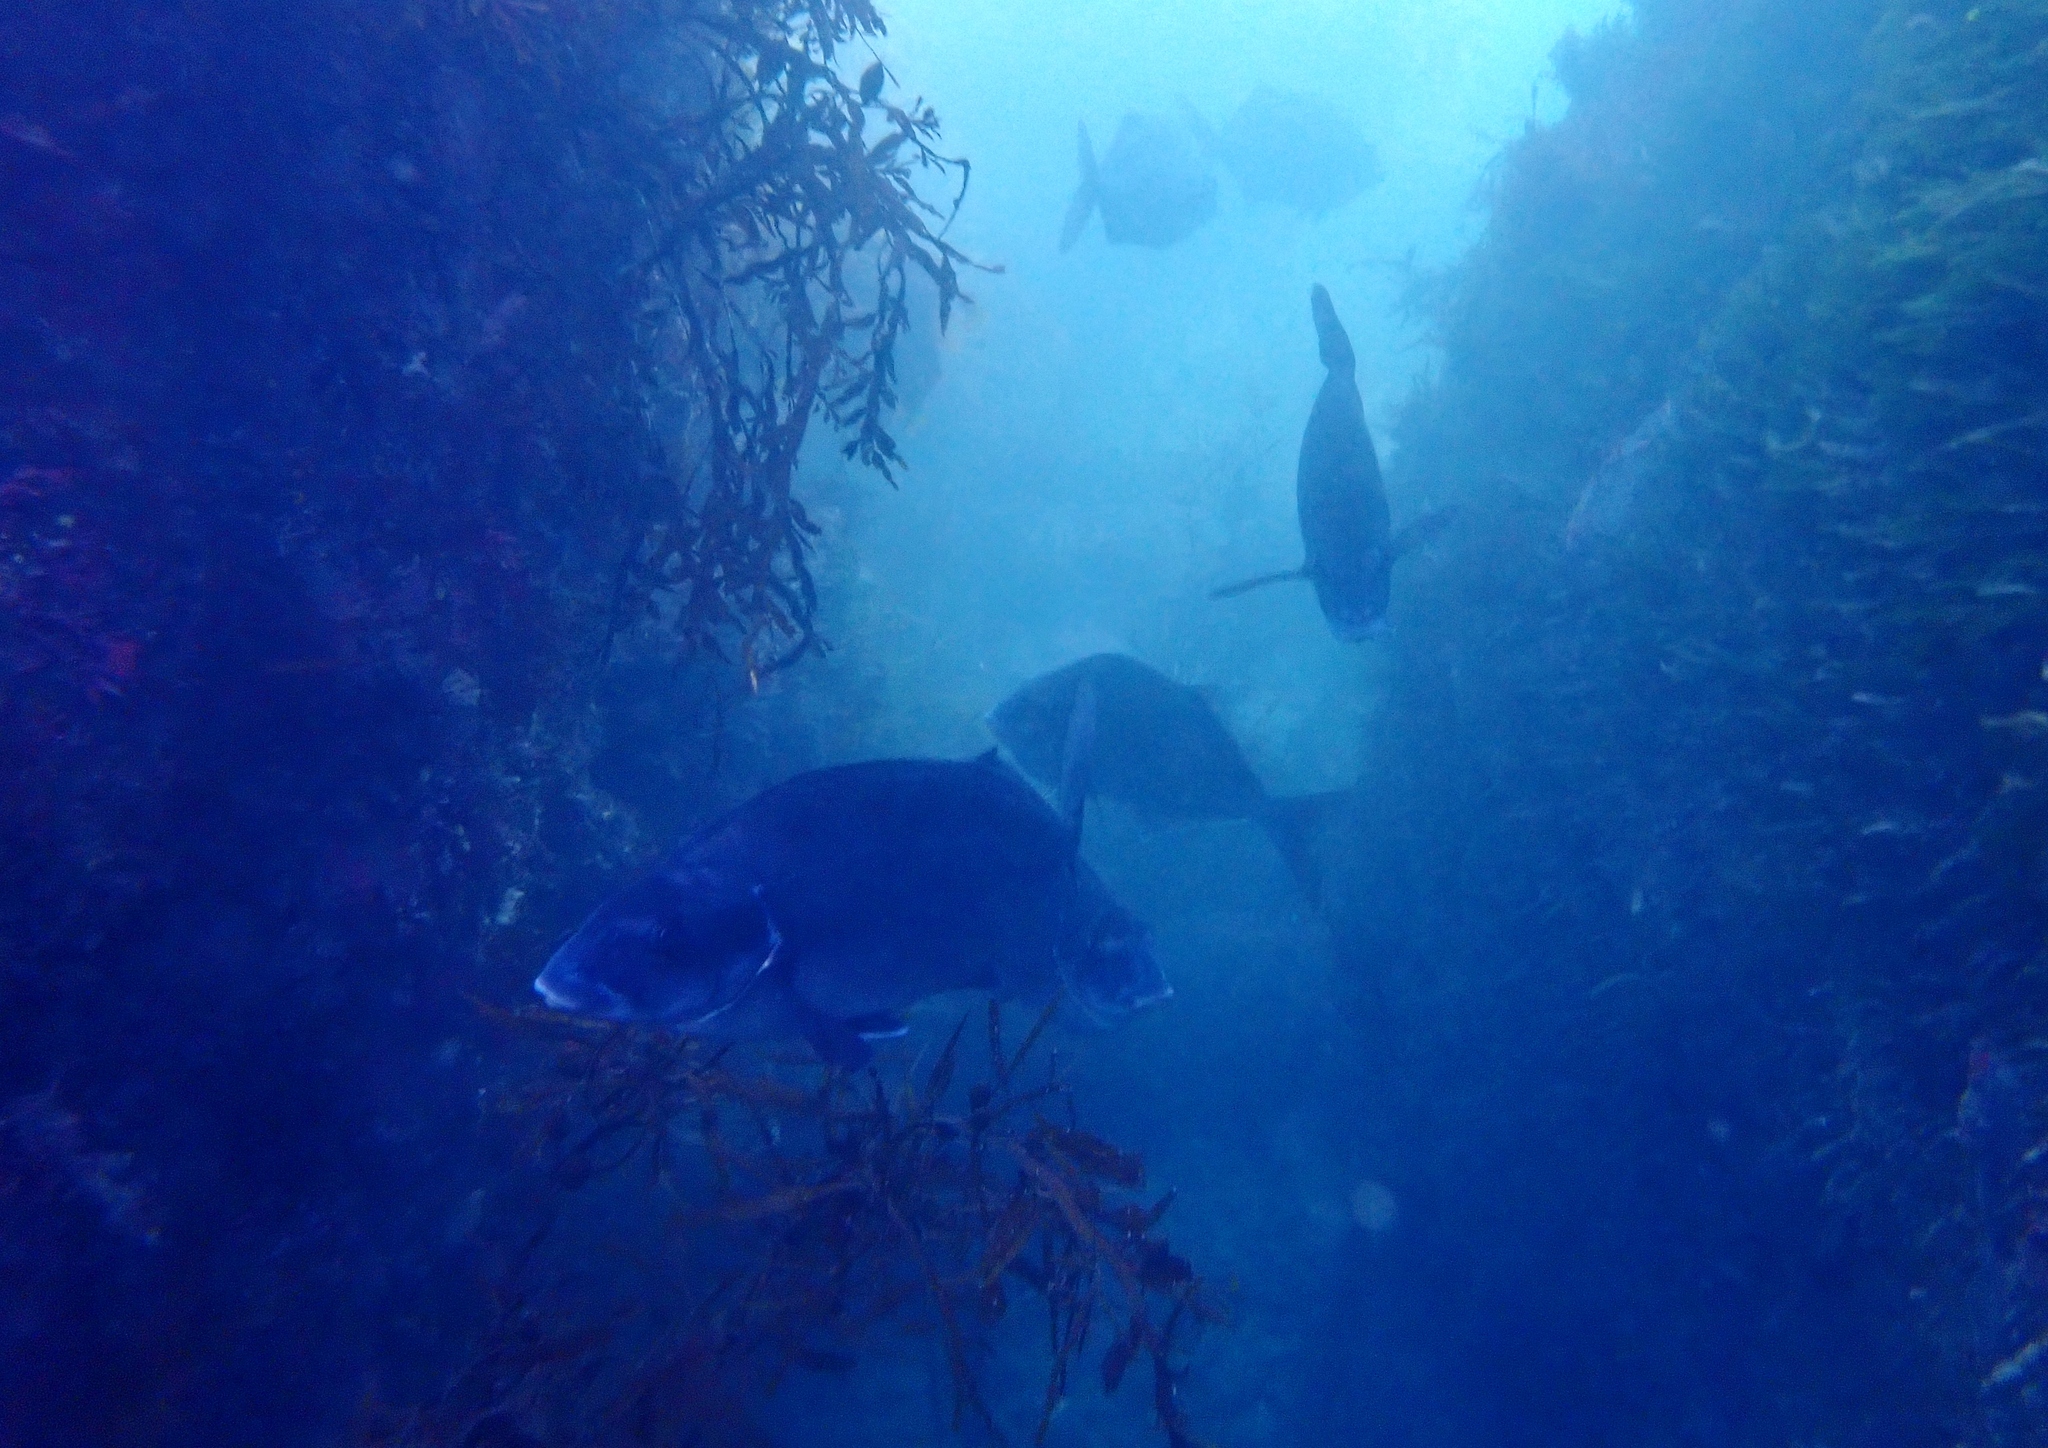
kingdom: Animalia
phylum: Chordata
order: Perciformes
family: Latridae
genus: Latridopsis
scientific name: Latridopsis ciliaris
